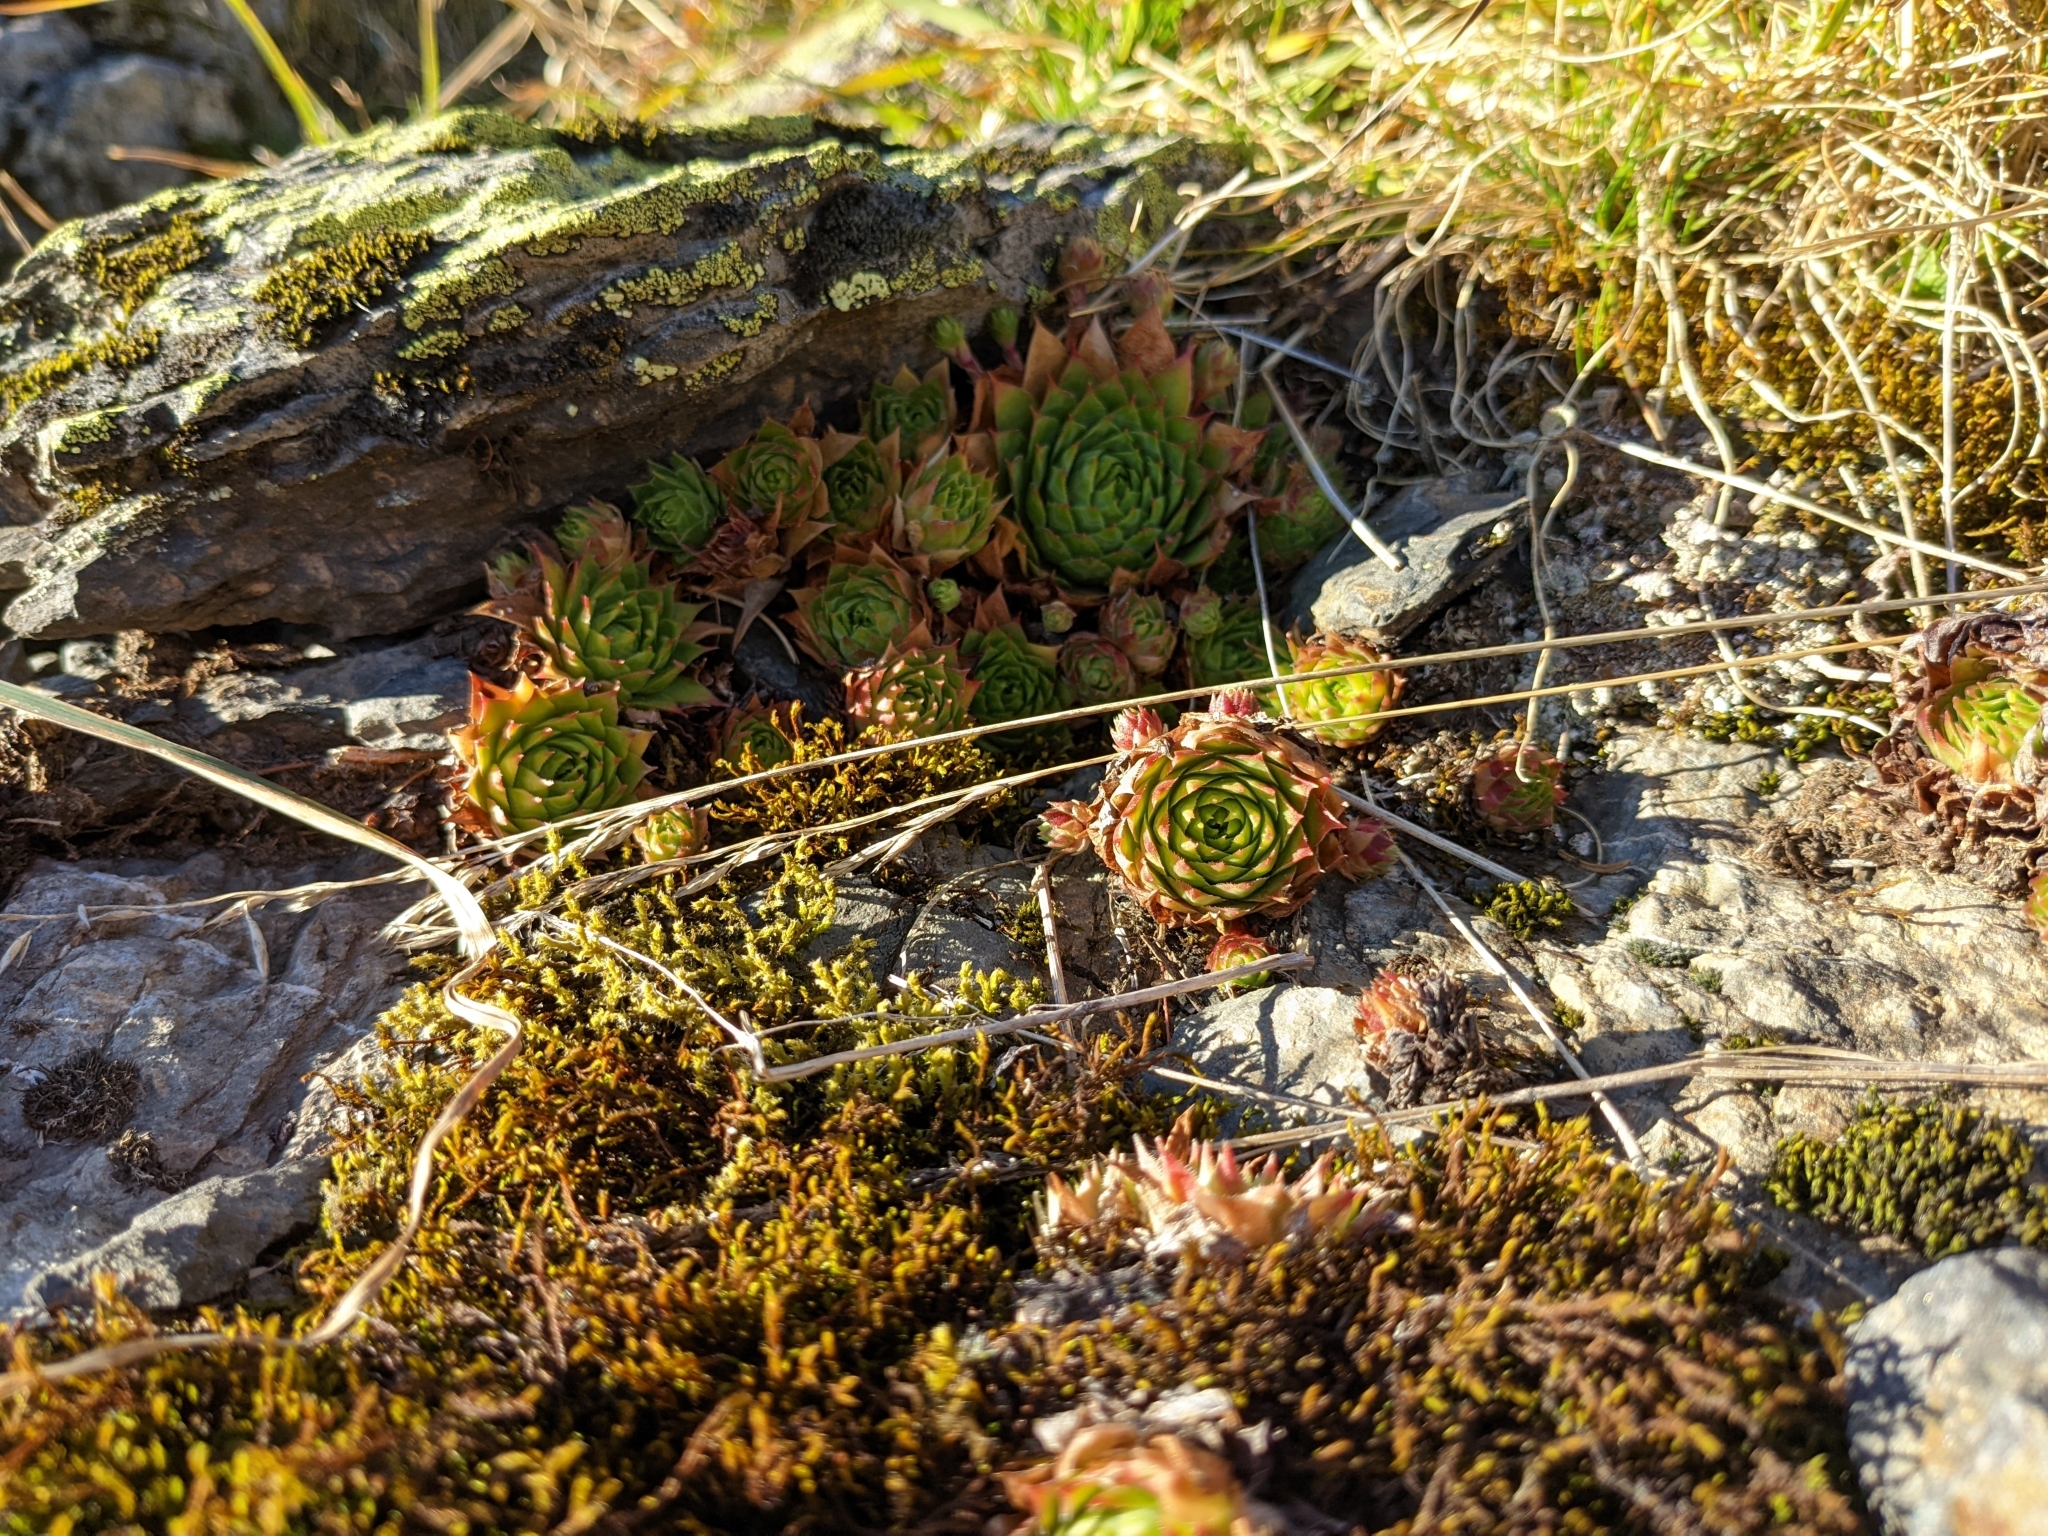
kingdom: Plantae
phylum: Tracheophyta
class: Magnoliopsida
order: Saxifragales
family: Crassulaceae
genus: Sempervivum
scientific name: Sempervivum tectorum
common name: House-leek
